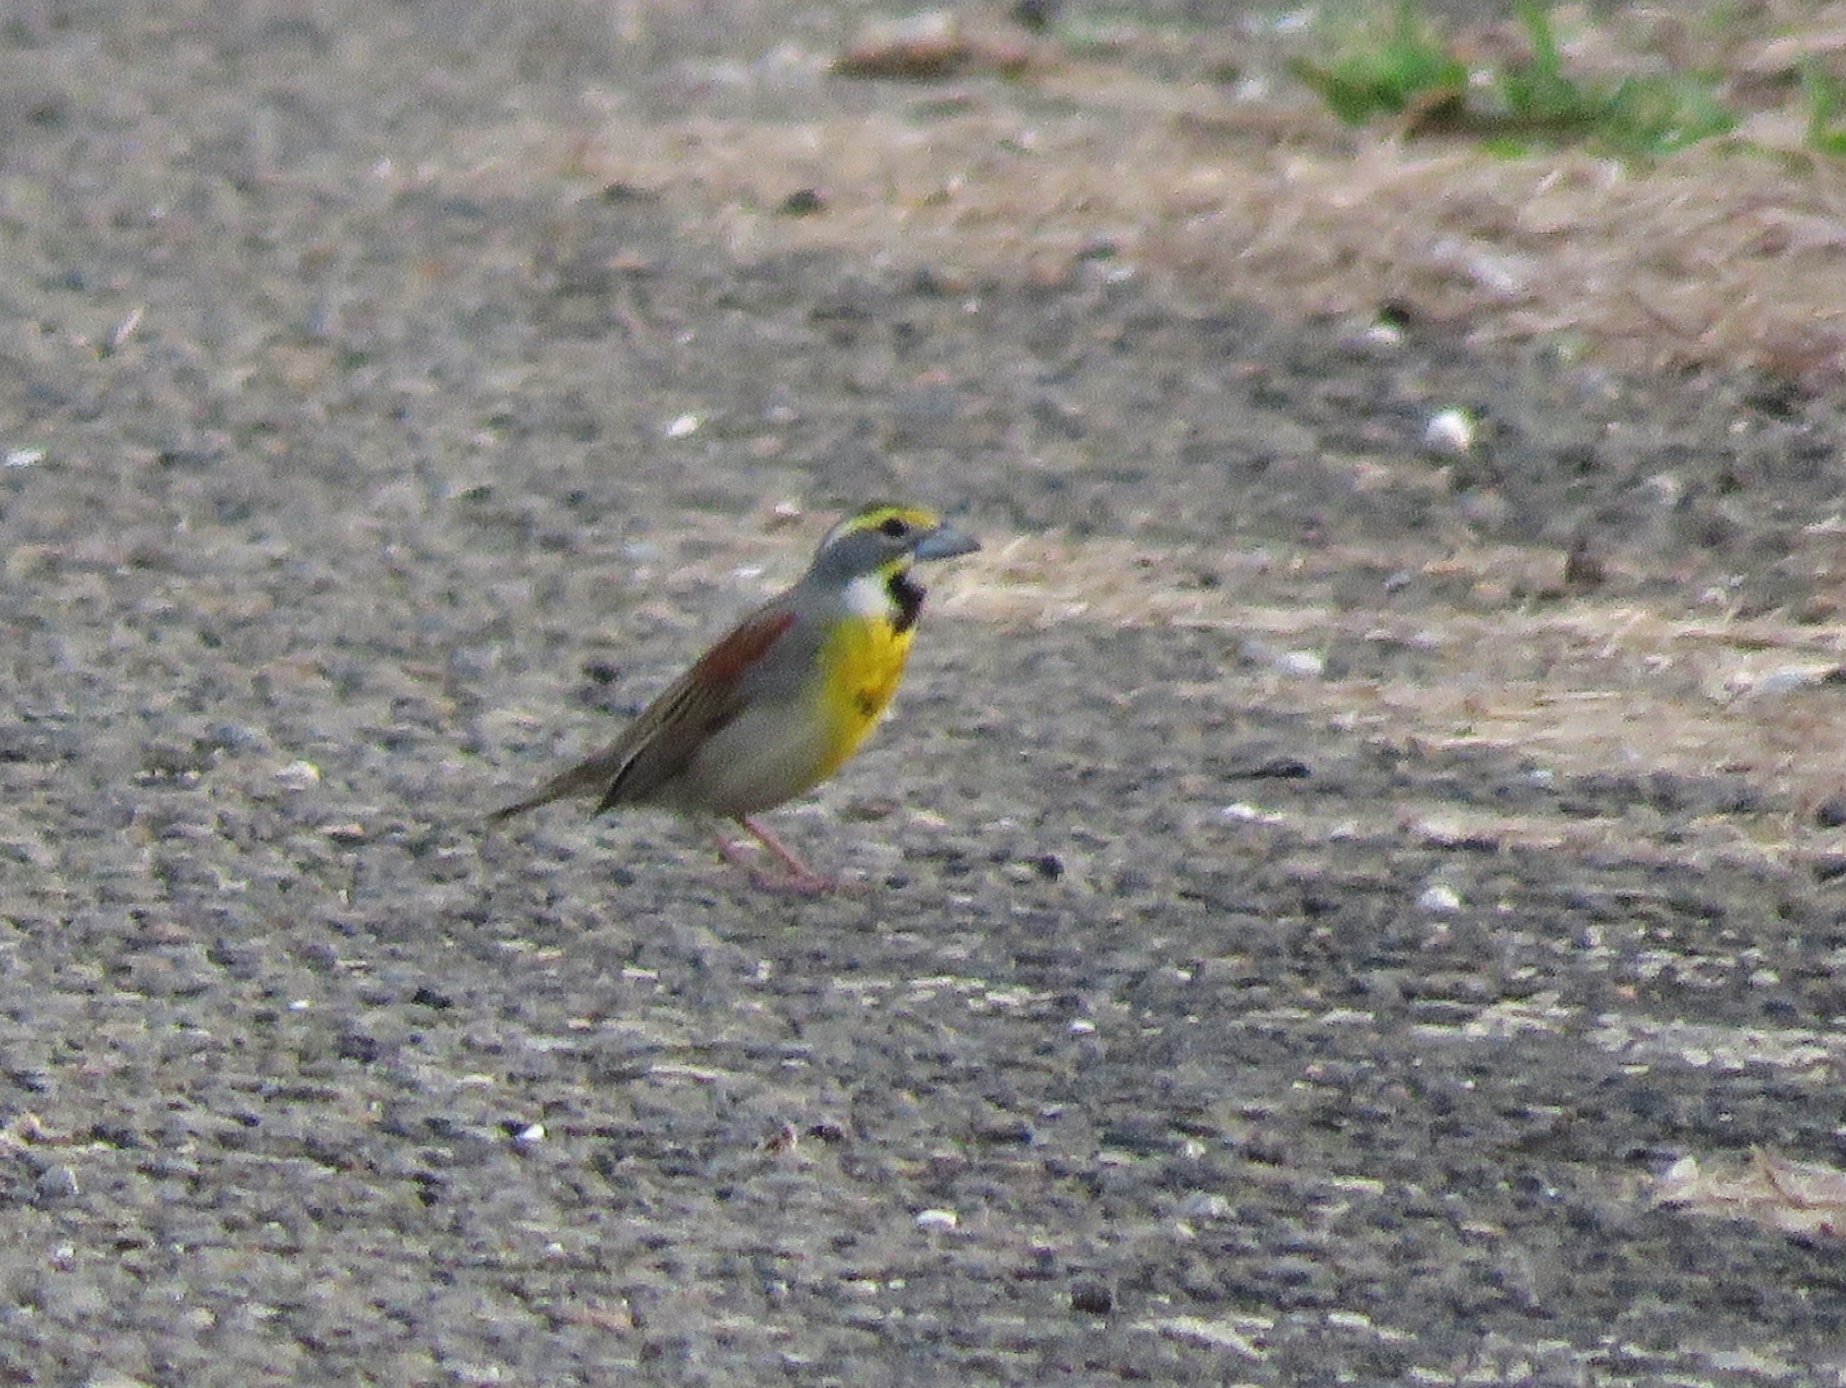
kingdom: Animalia
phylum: Chordata
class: Aves
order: Passeriformes
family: Cardinalidae
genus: Spiza
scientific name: Spiza americana
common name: Dickcissel
